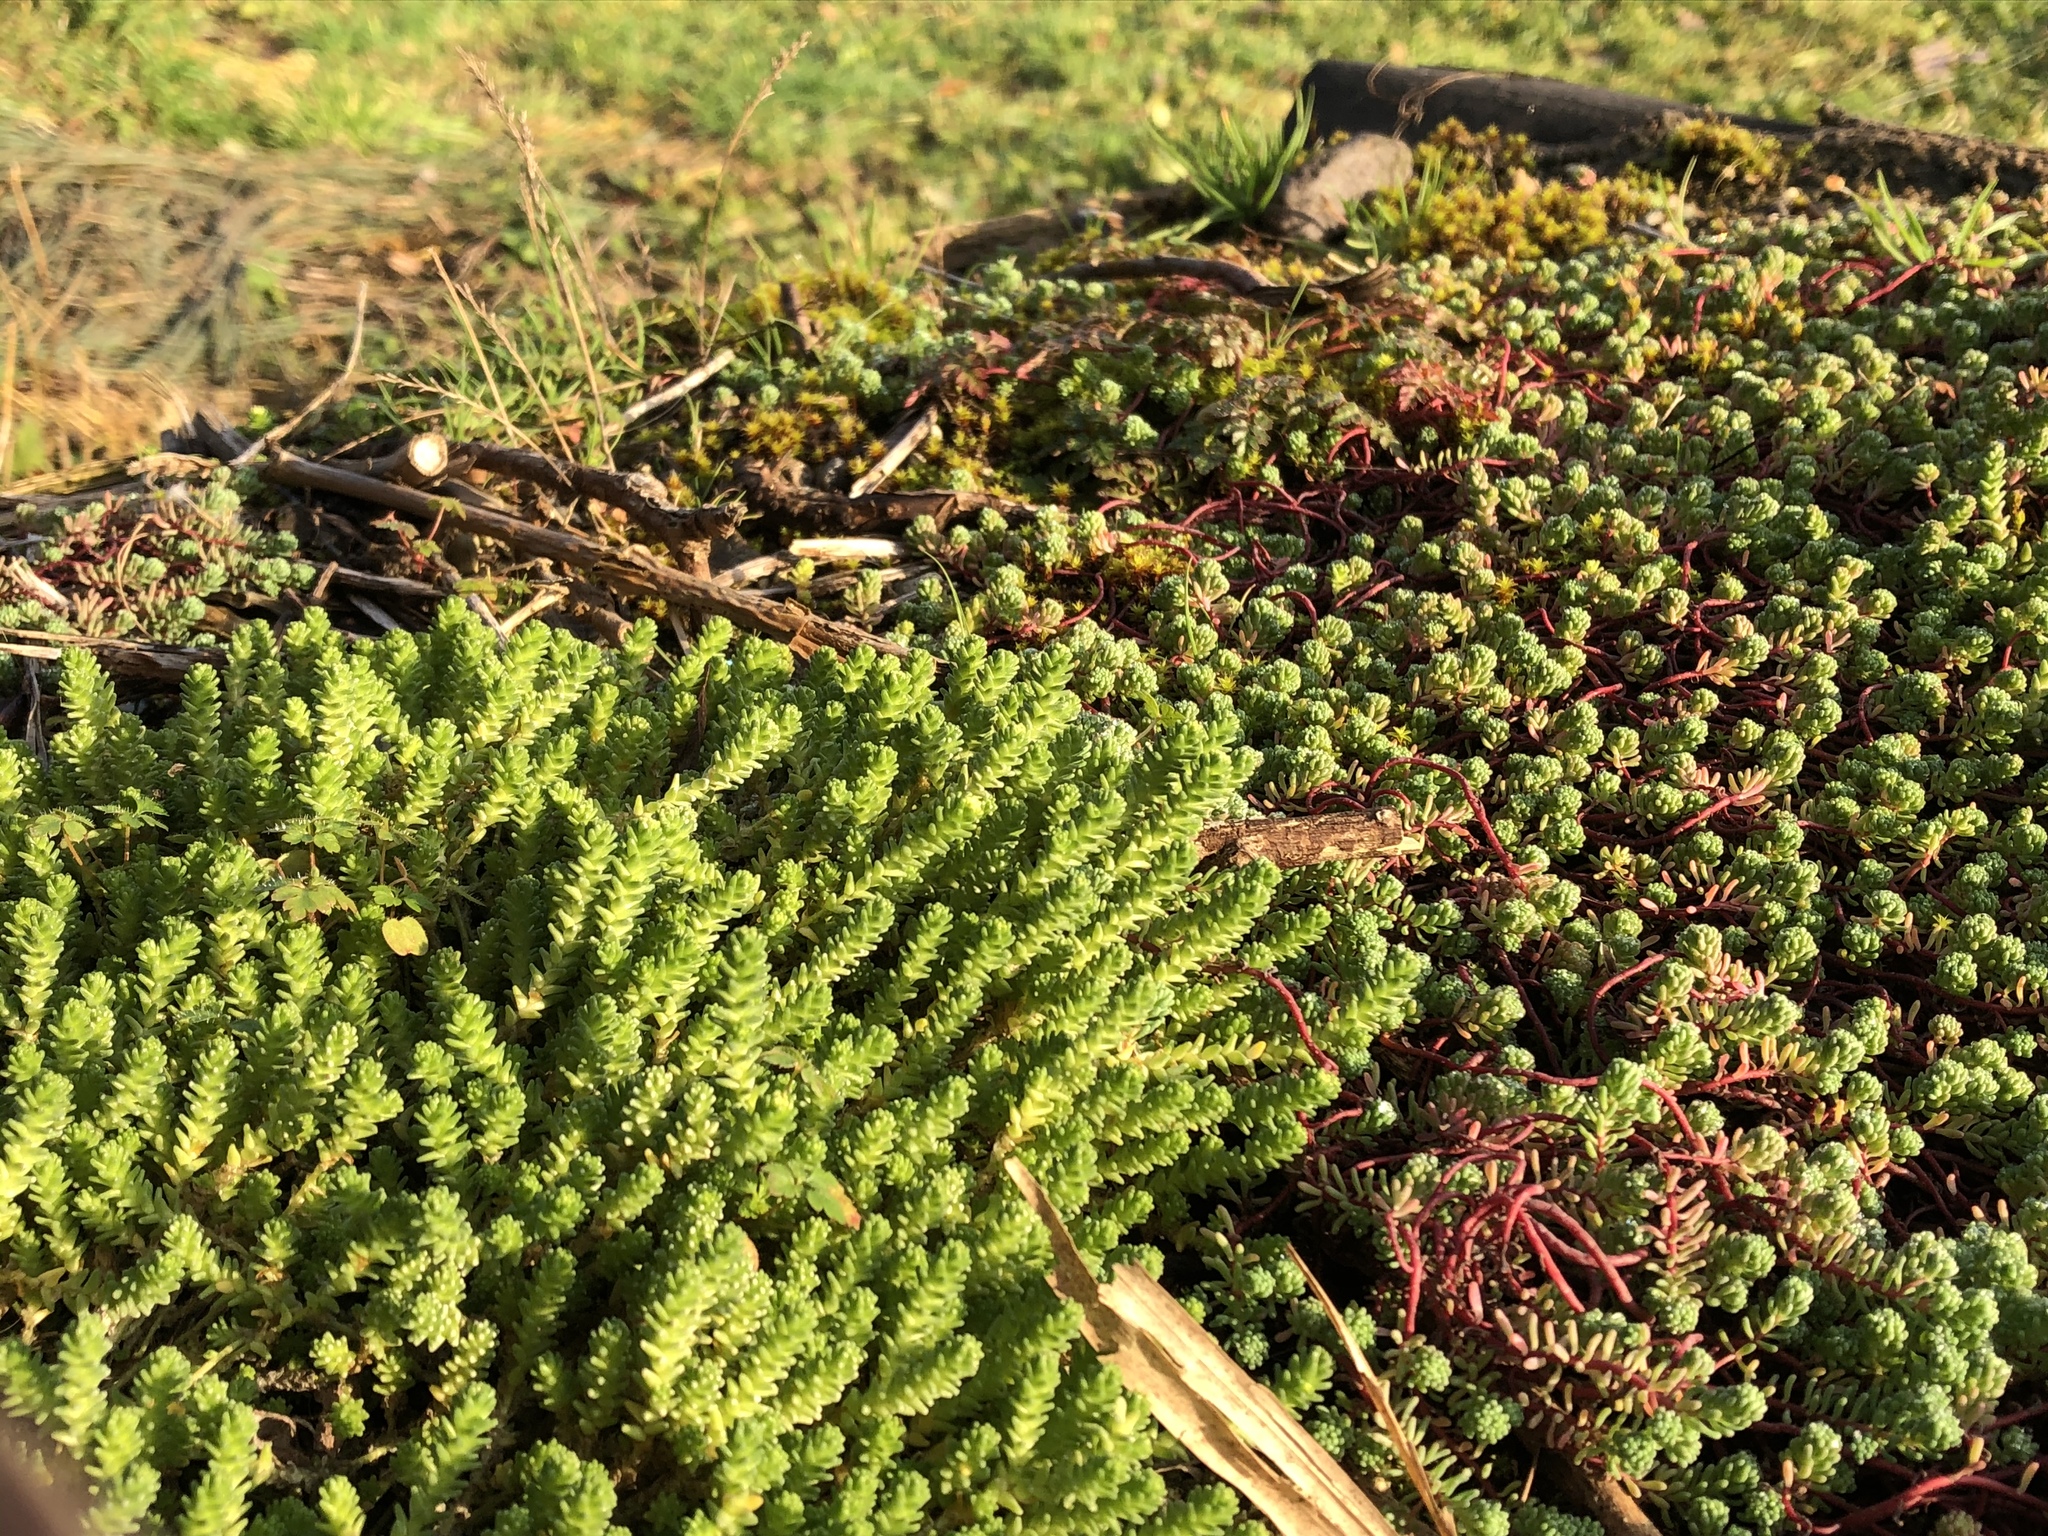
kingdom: Plantae
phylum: Tracheophyta
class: Magnoliopsida
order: Saxifragales
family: Crassulaceae
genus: Sedum
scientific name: Sedum pallidum
